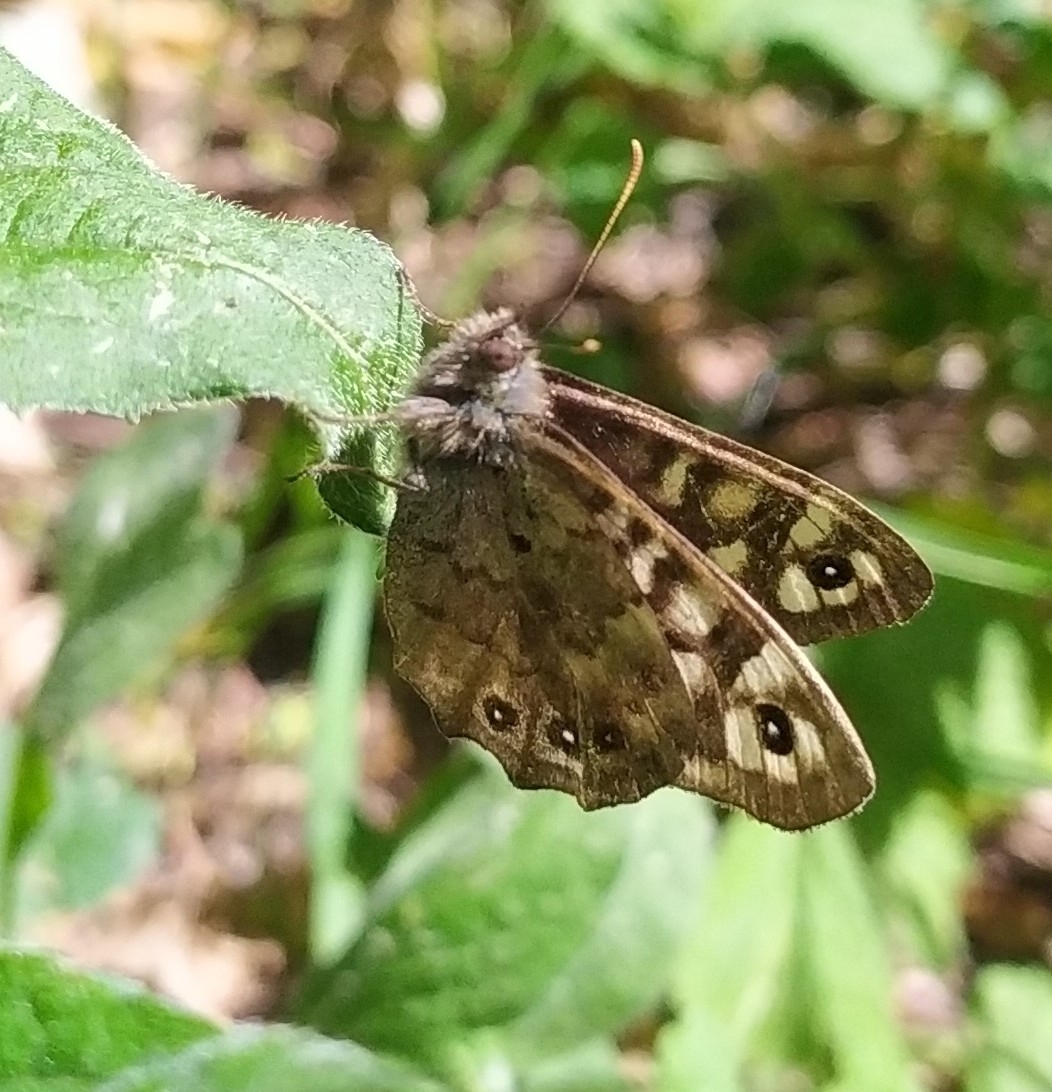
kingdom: Animalia
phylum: Arthropoda
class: Insecta
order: Lepidoptera
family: Nymphalidae
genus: Pararge
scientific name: Pararge aegeria
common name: Speckled wood
